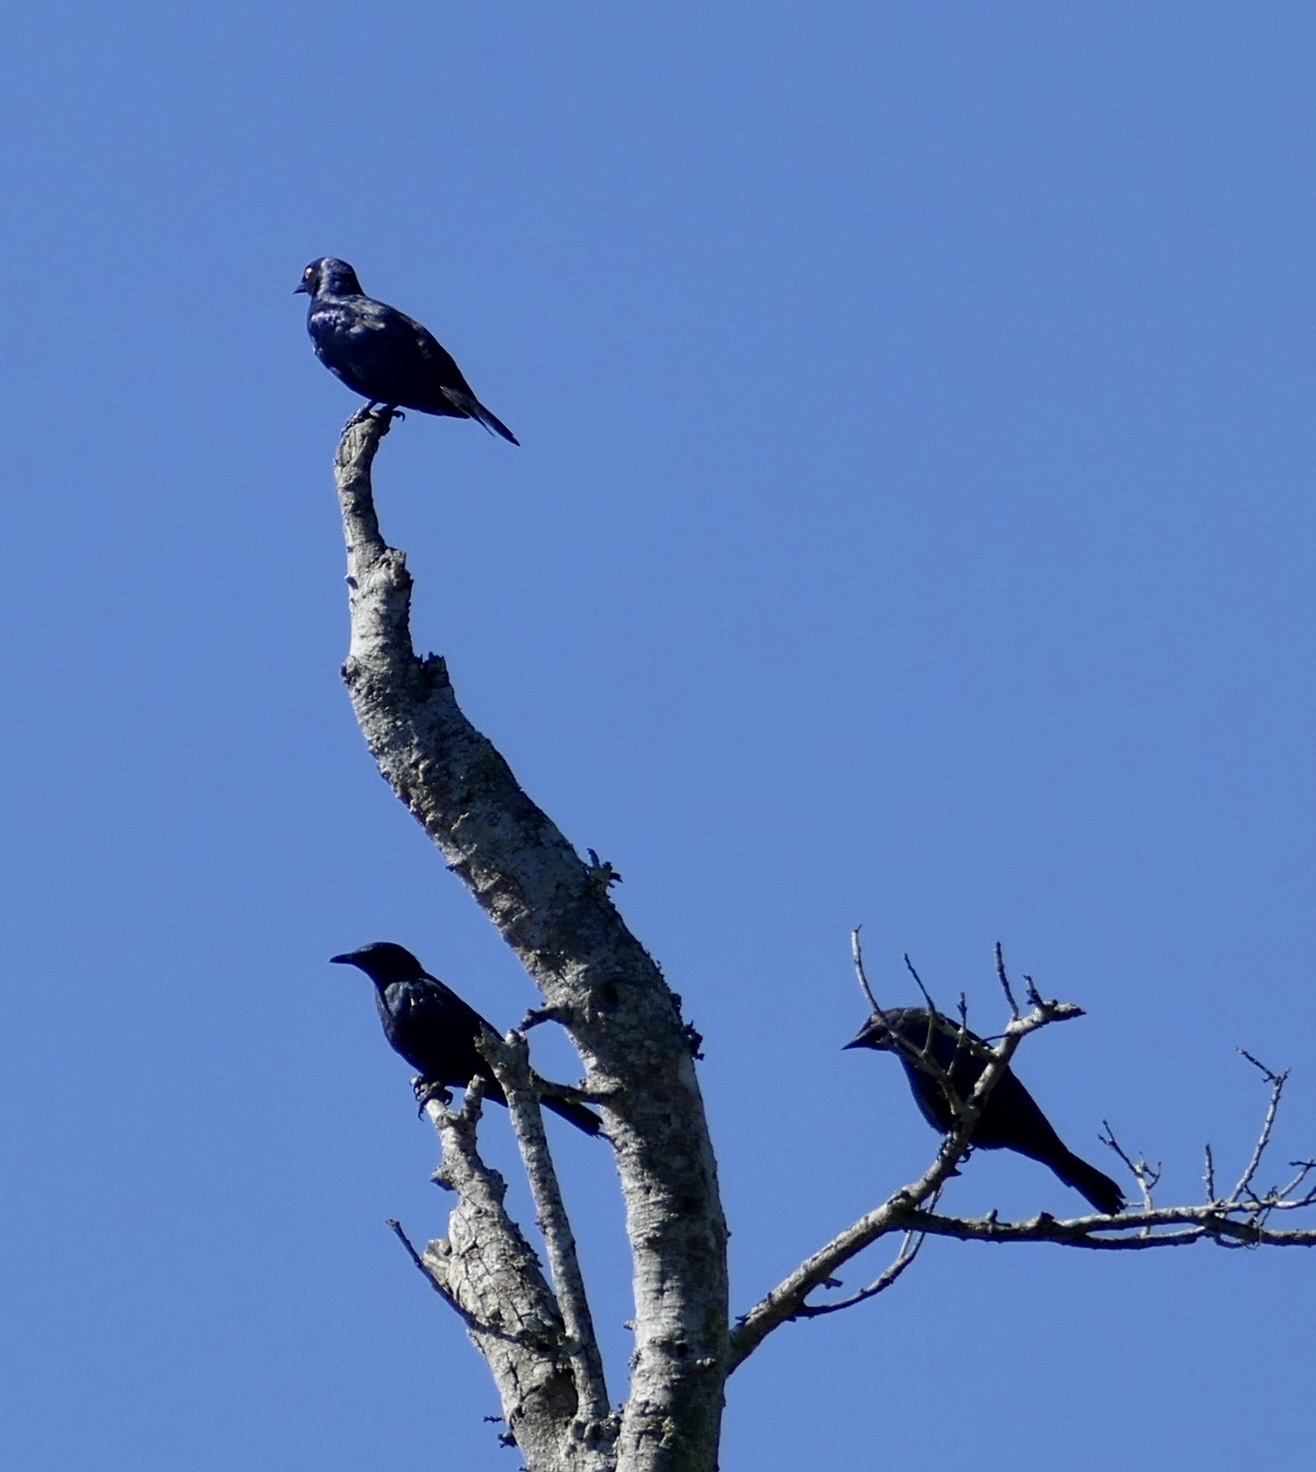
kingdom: Animalia
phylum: Chordata
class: Aves
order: Passeriformes
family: Sturnidae
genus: Notopholia
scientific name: Notopholia corrusca
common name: Black-bellied starling
